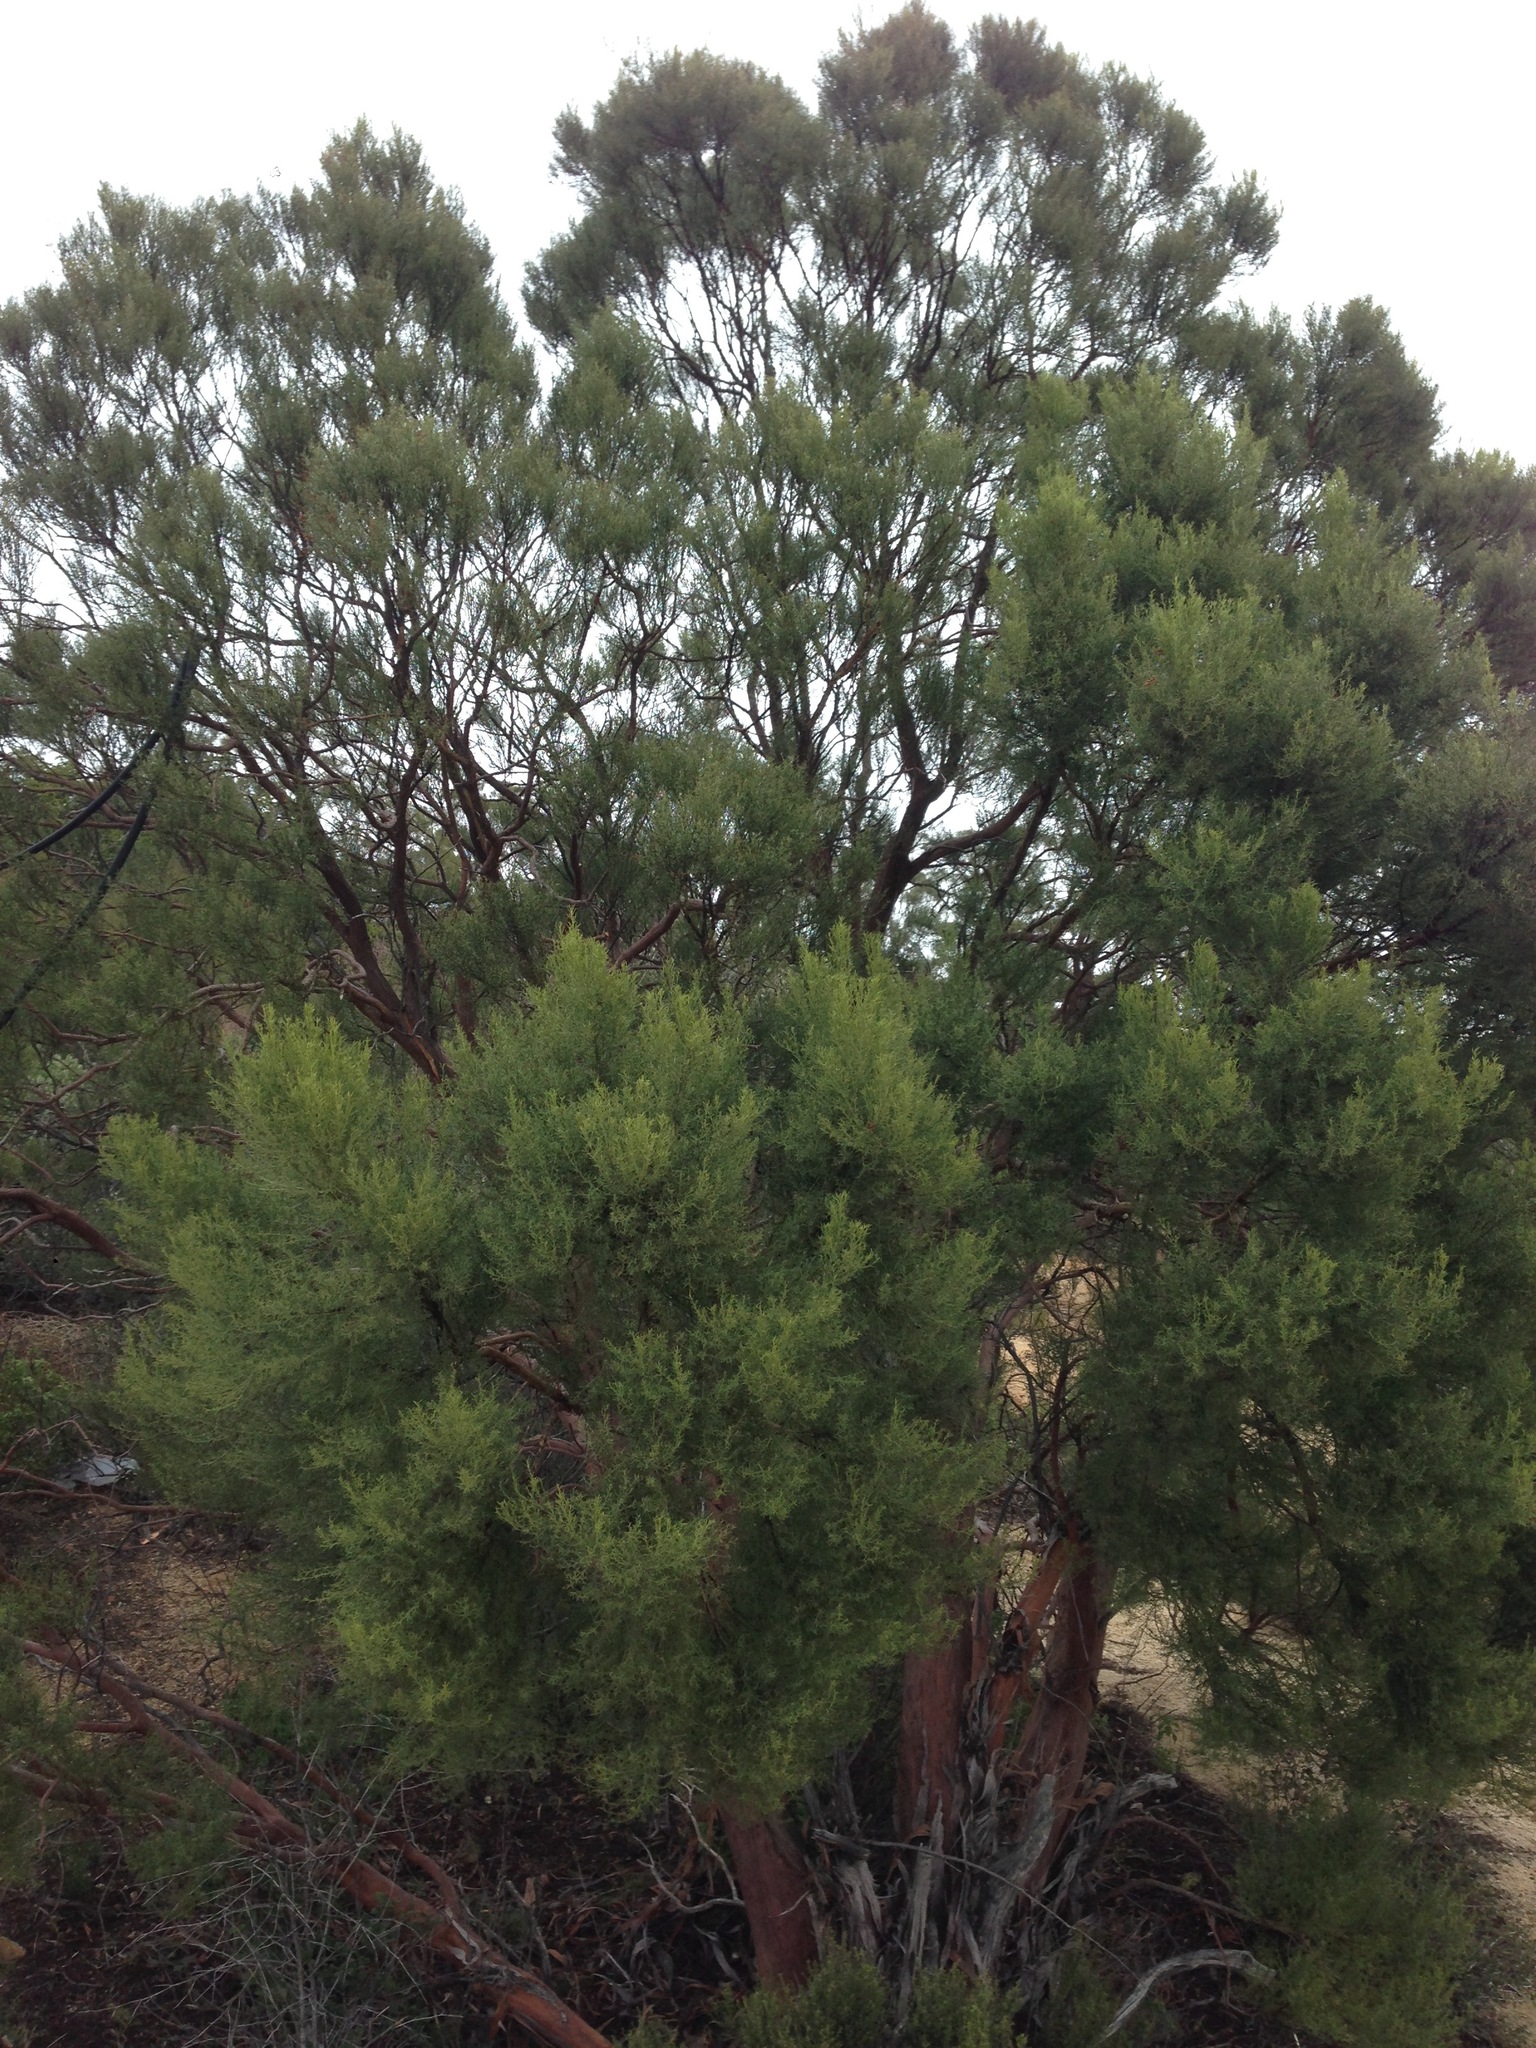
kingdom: Plantae
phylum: Tracheophyta
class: Magnoliopsida
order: Rosales
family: Rosaceae
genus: Adenostoma
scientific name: Adenostoma sparsifolium
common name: Red shank
